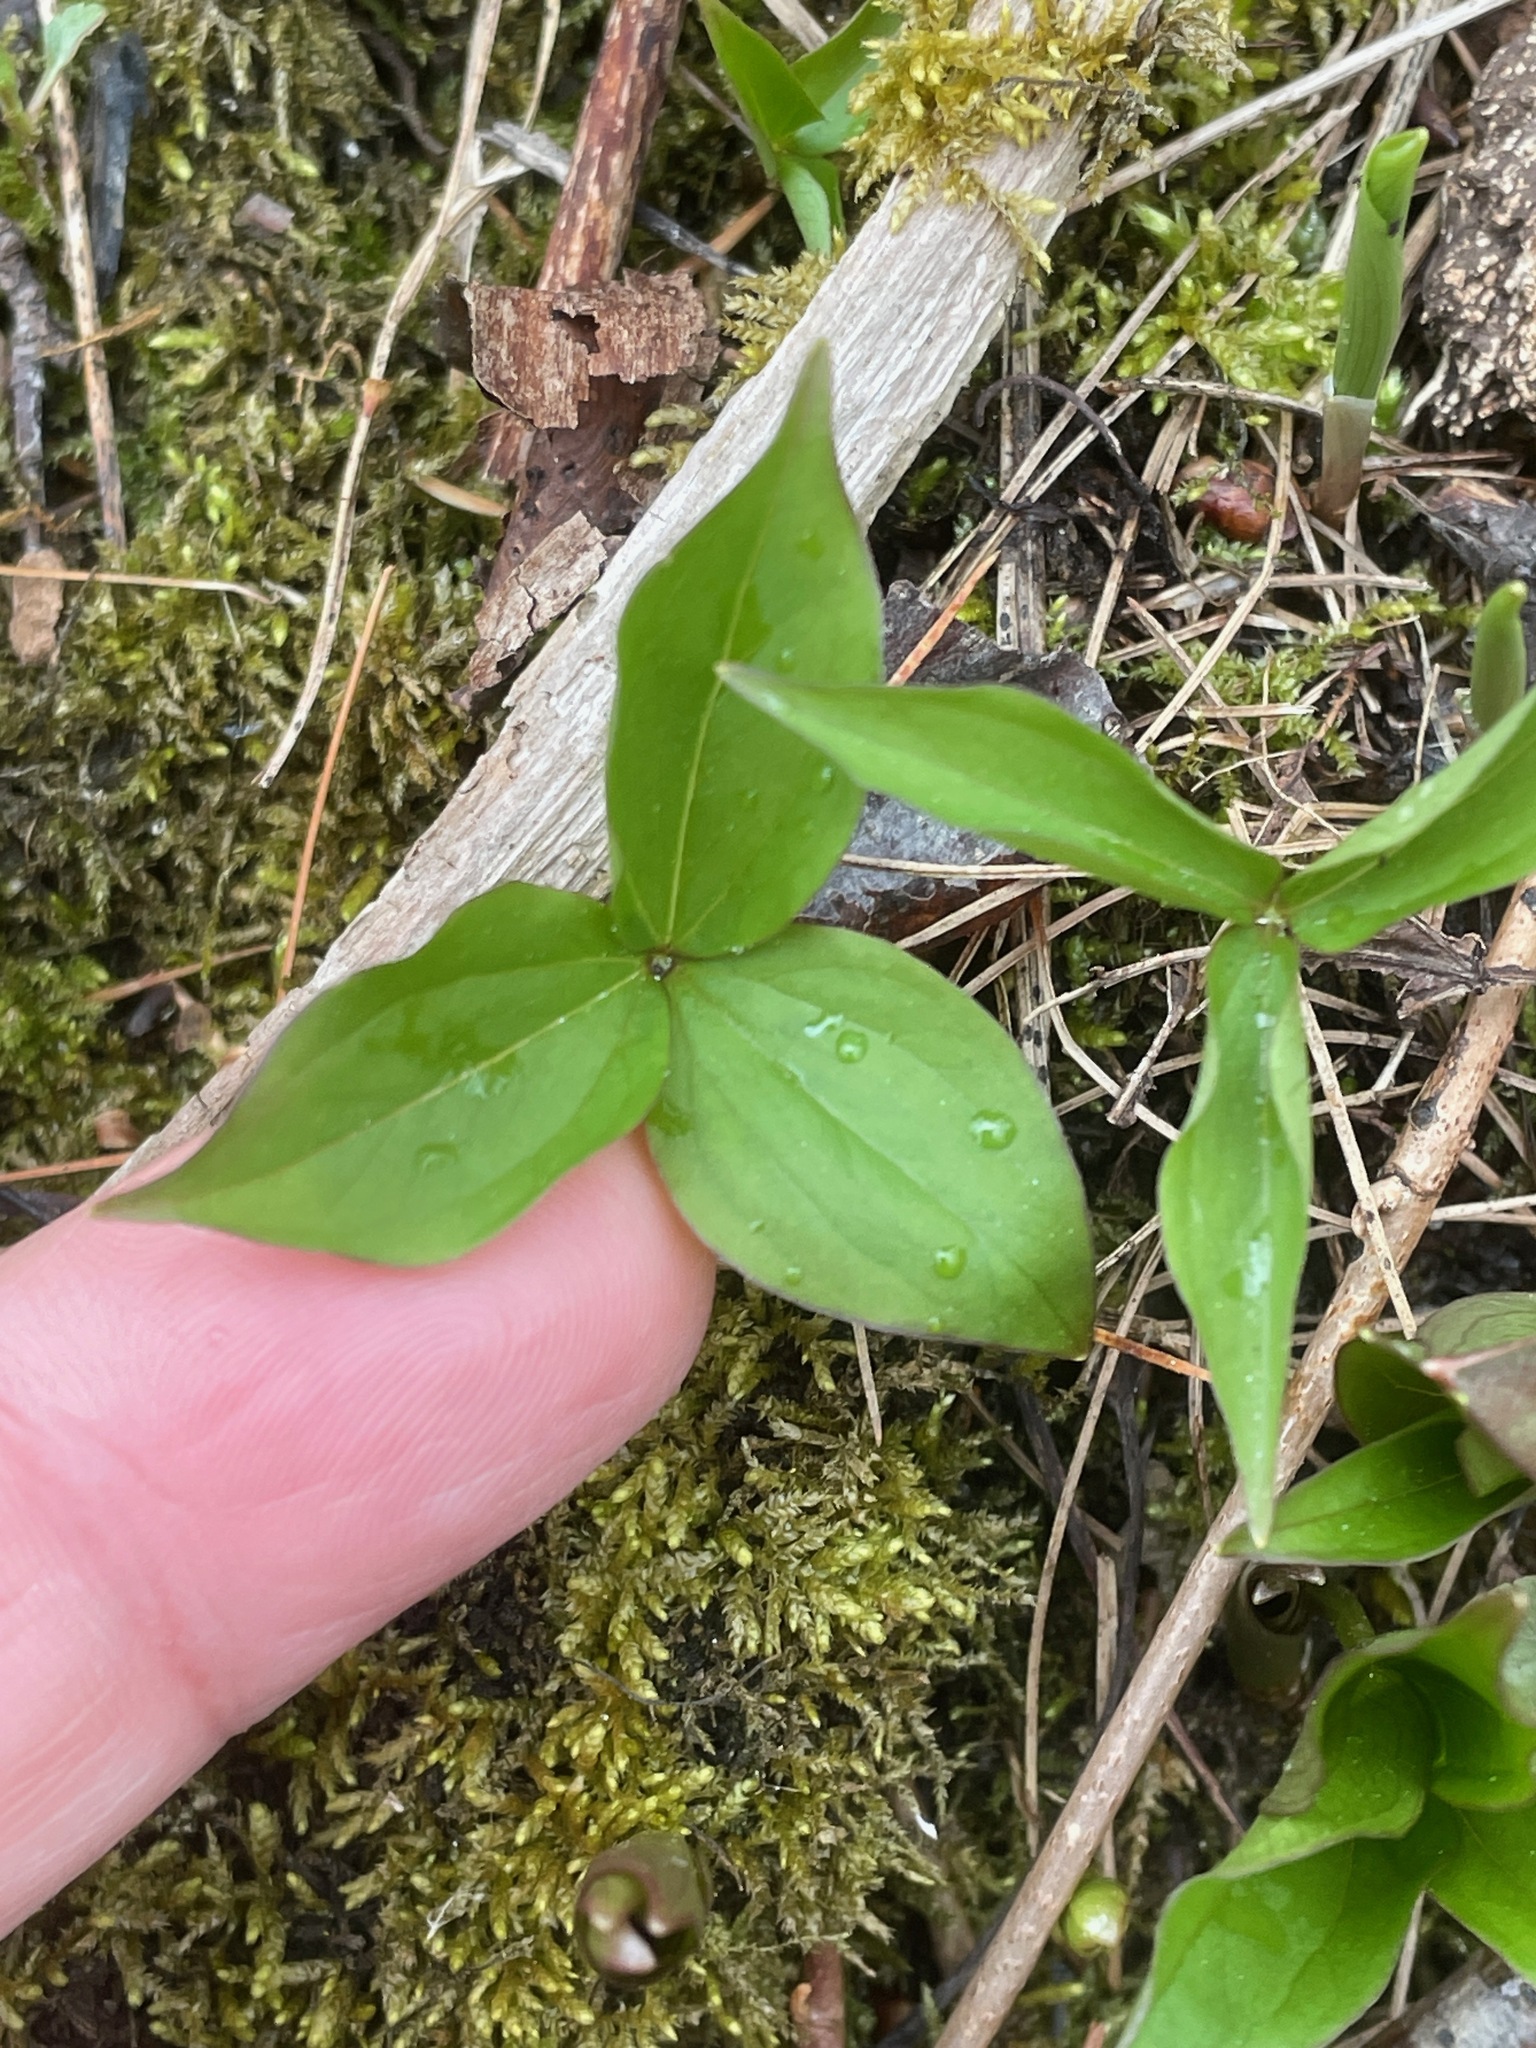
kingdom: Plantae
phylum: Tracheophyta
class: Liliopsida
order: Liliales
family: Melanthiaceae
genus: Trillium
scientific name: Trillium grandiflorum
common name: Great white trillium
